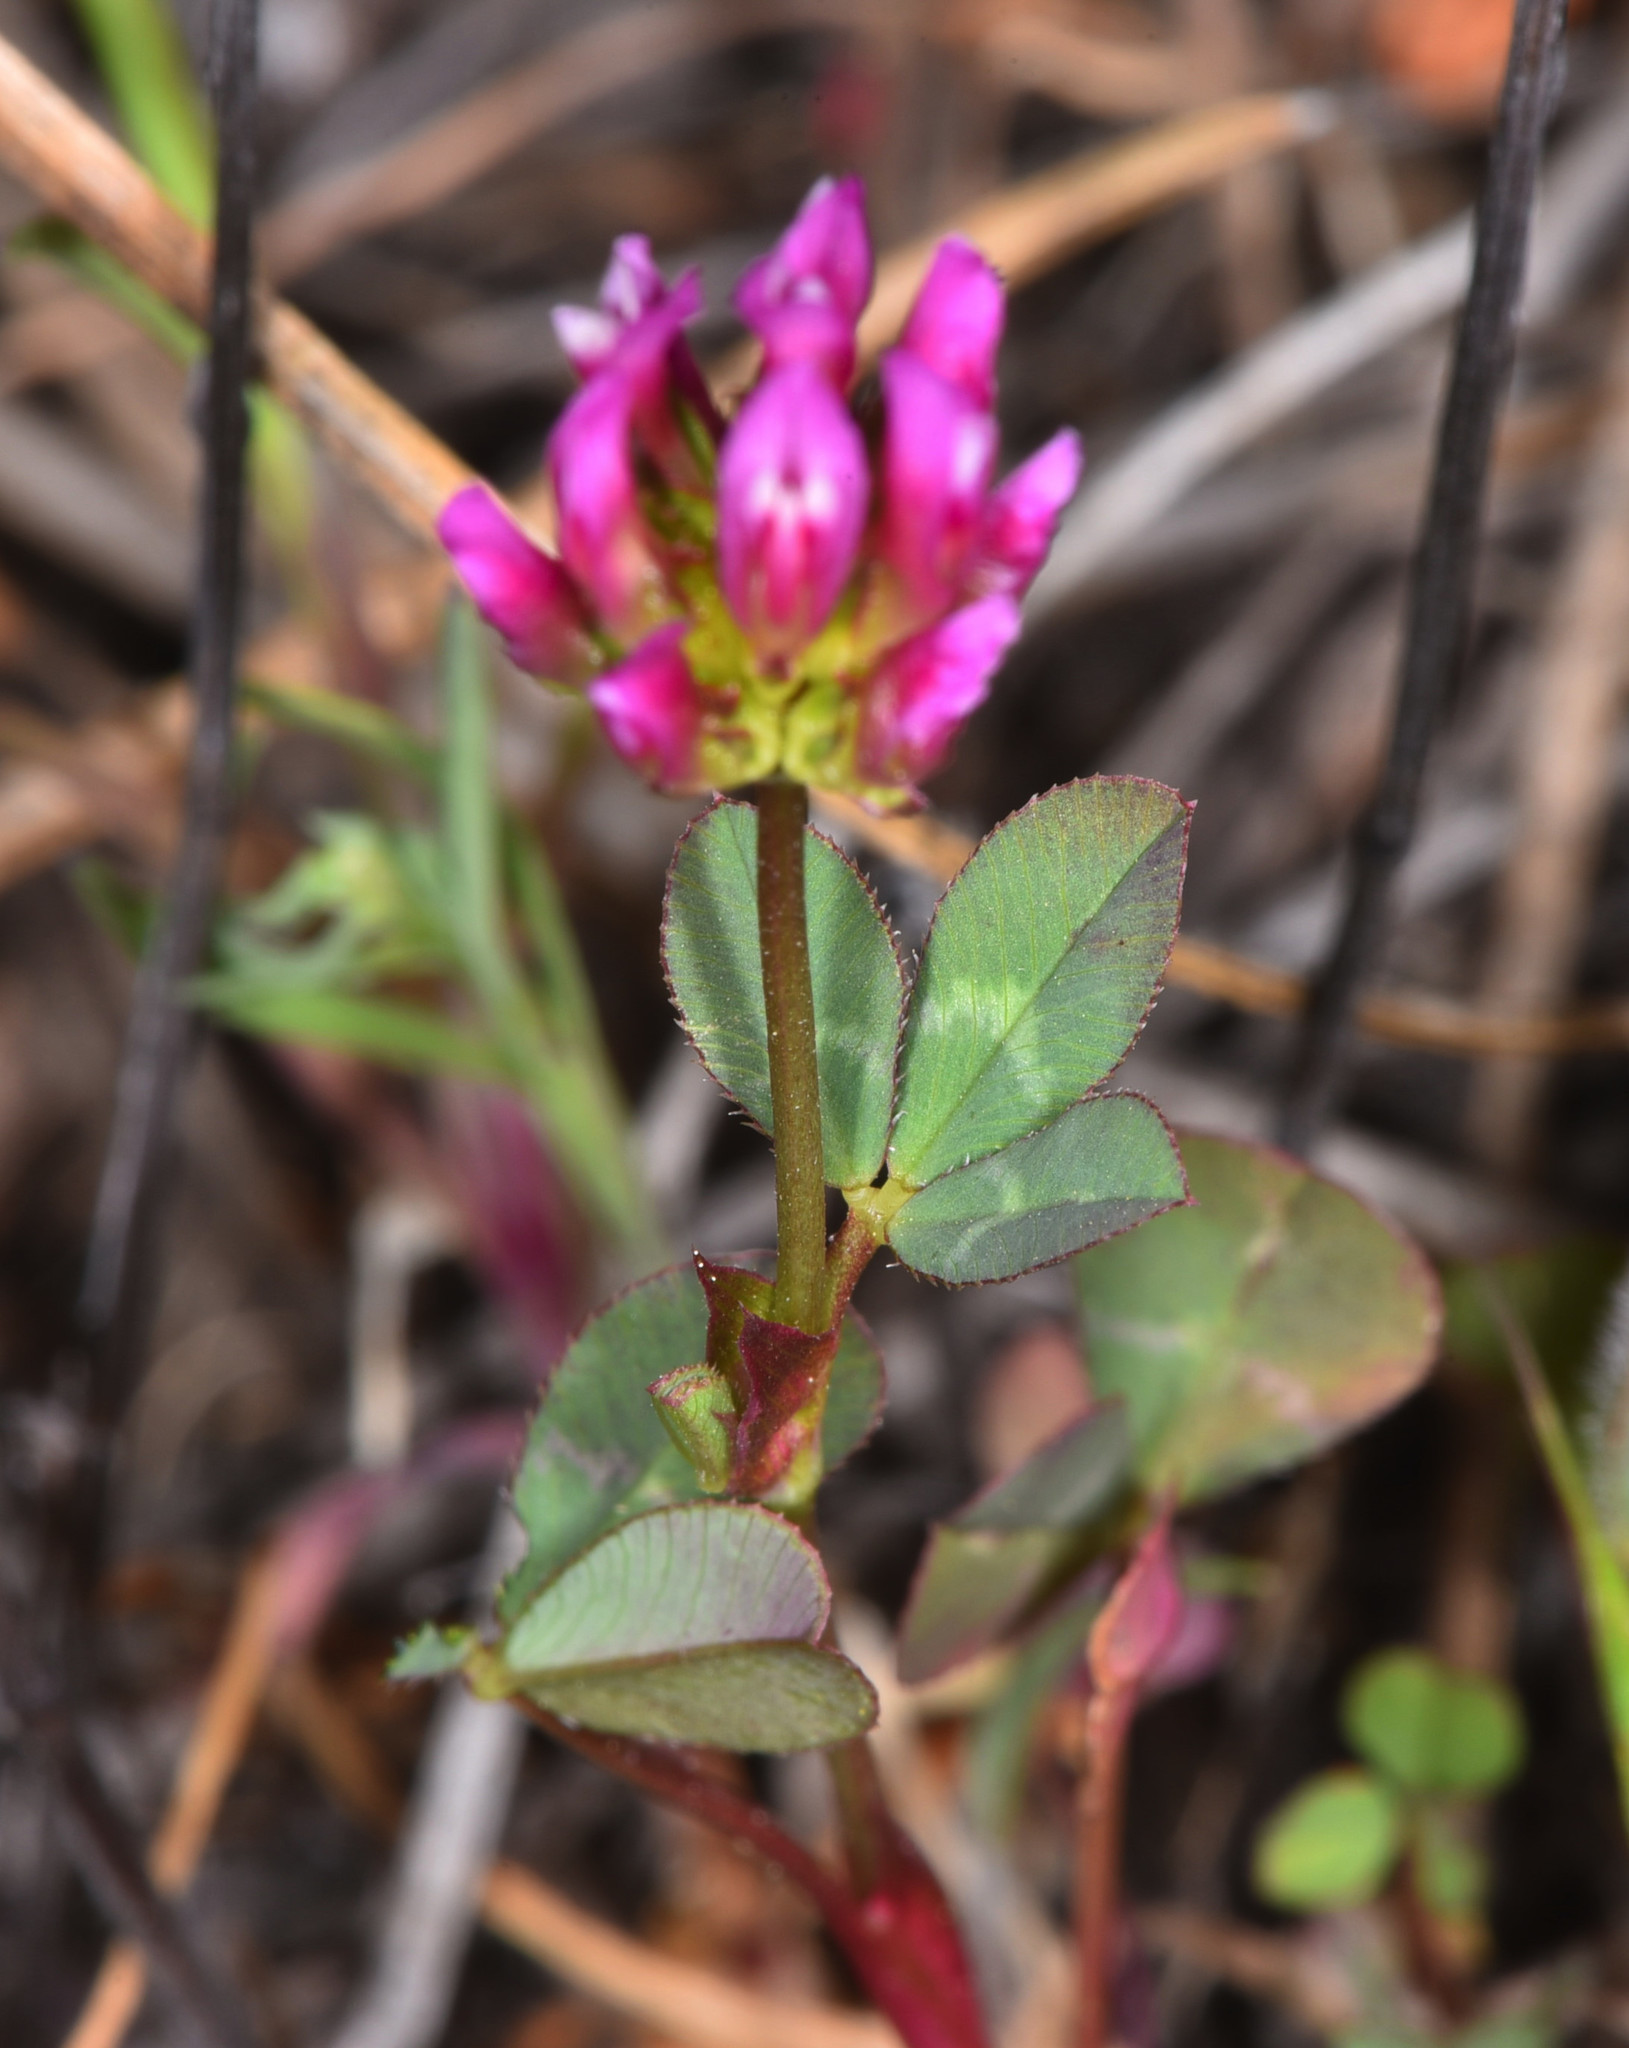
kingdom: Plantae
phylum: Tracheophyta
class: Magnoliopsida
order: Fabales
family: Fabaceae
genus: Trifolium
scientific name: Trifolium ciliolatum
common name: Foothill clover
